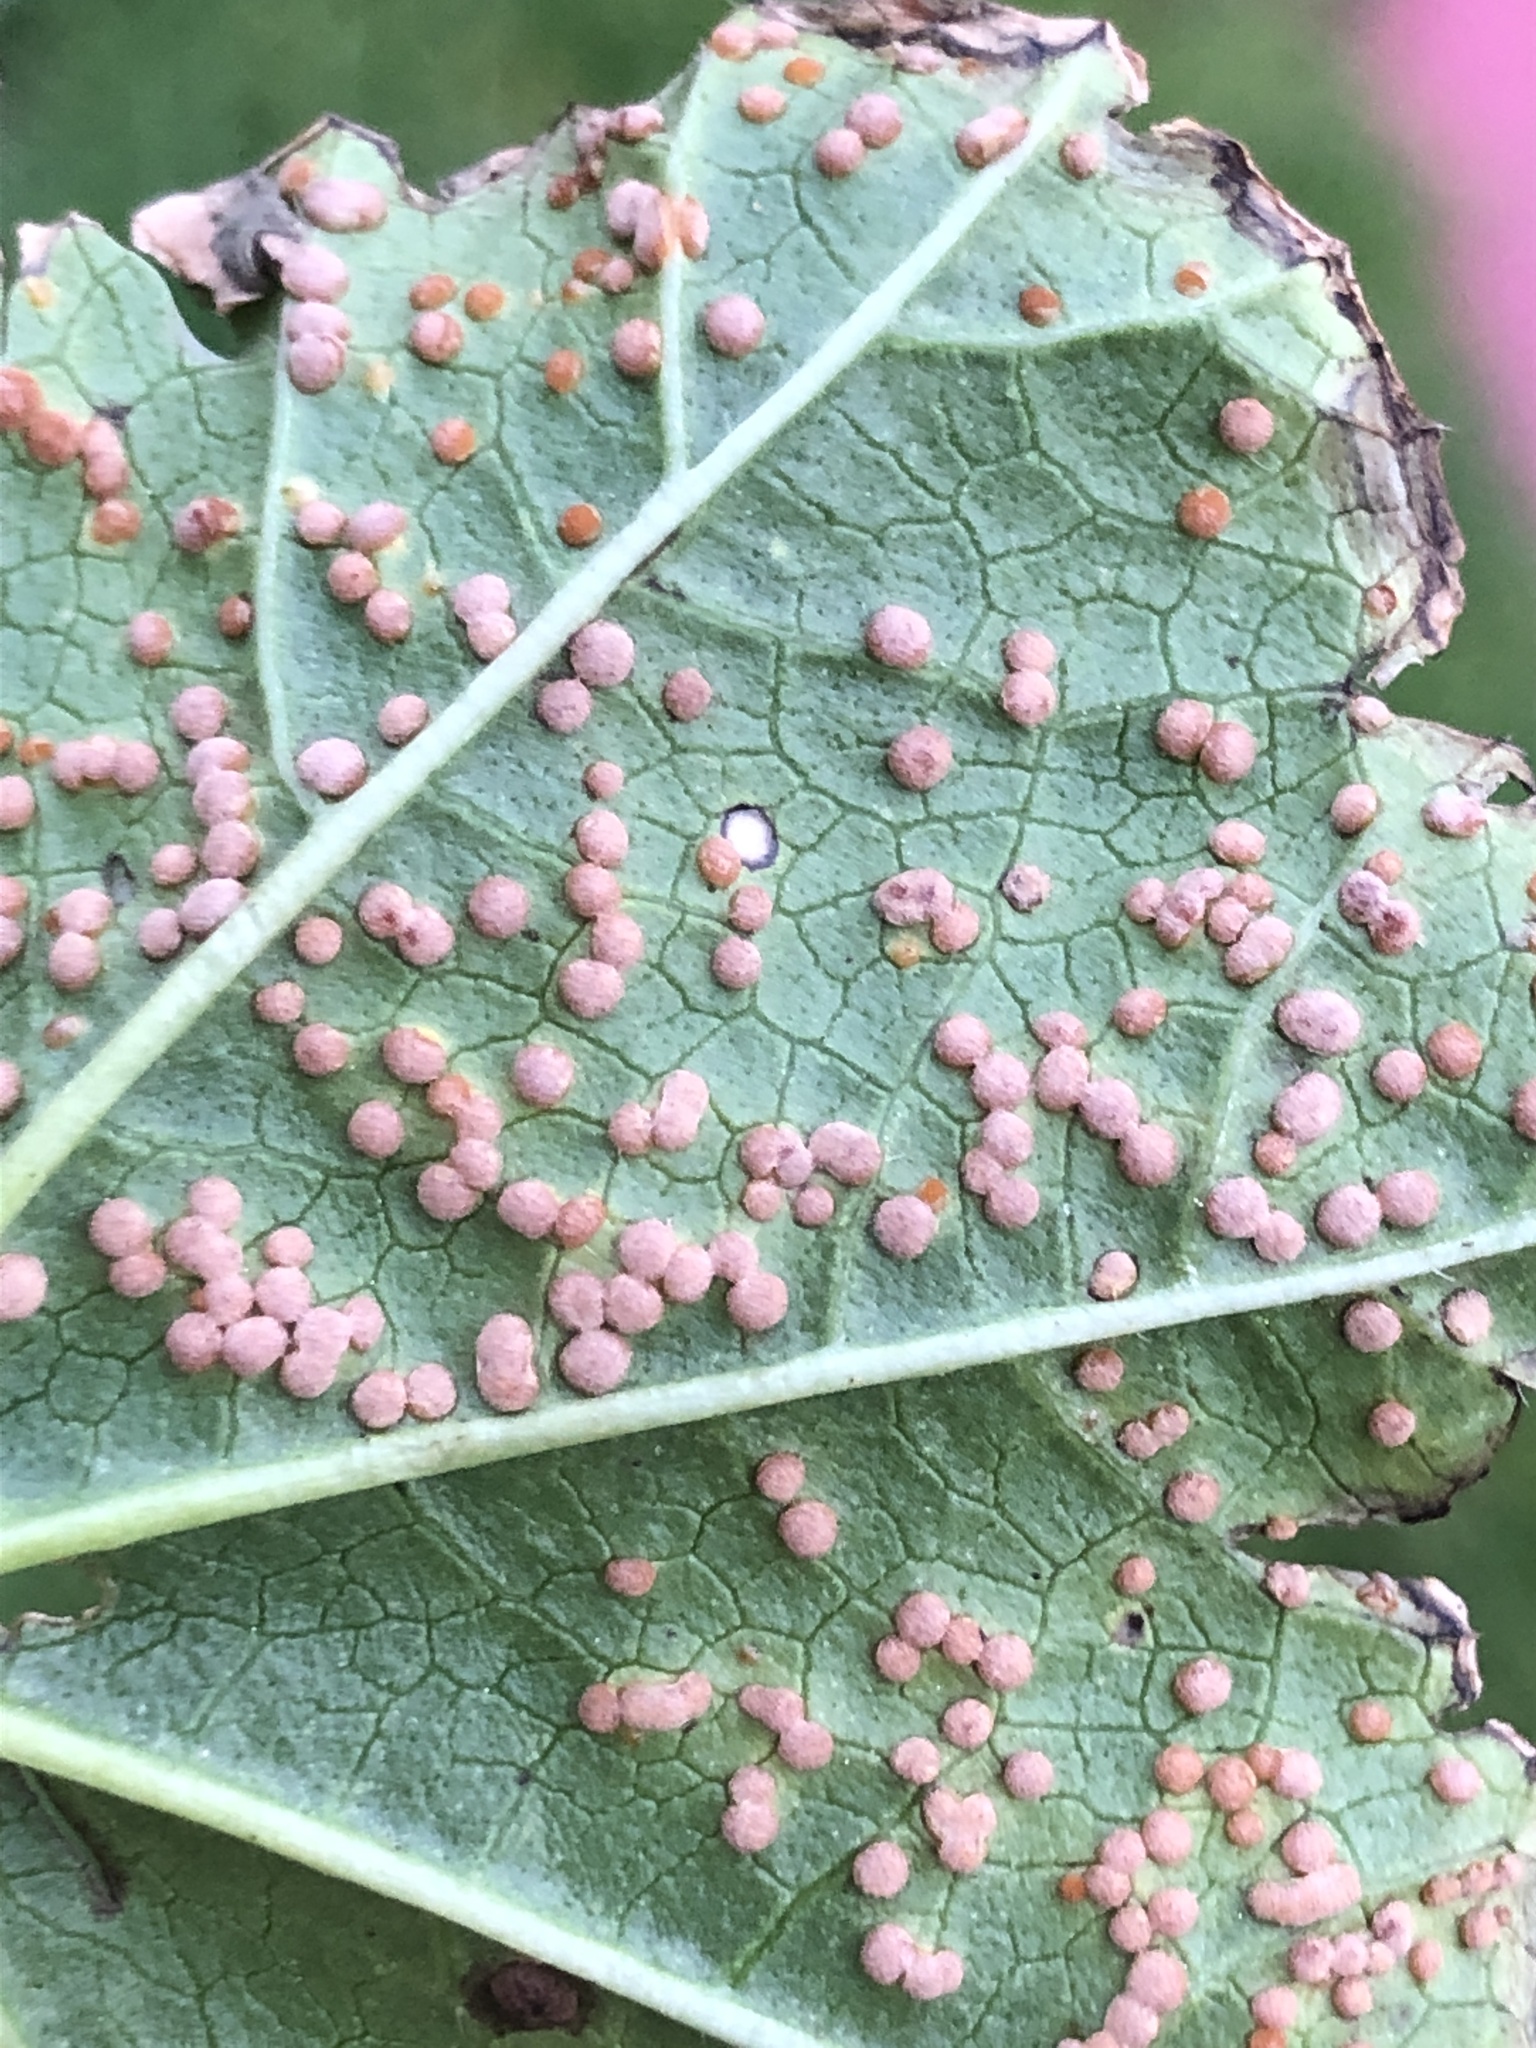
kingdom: Fungi
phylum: Basidiomycota
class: Pucciniomycetes
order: Pucciniales
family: Pucciniaceae
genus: Puccinia
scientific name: Puccinia malvacearum
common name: Hollyhock rust
